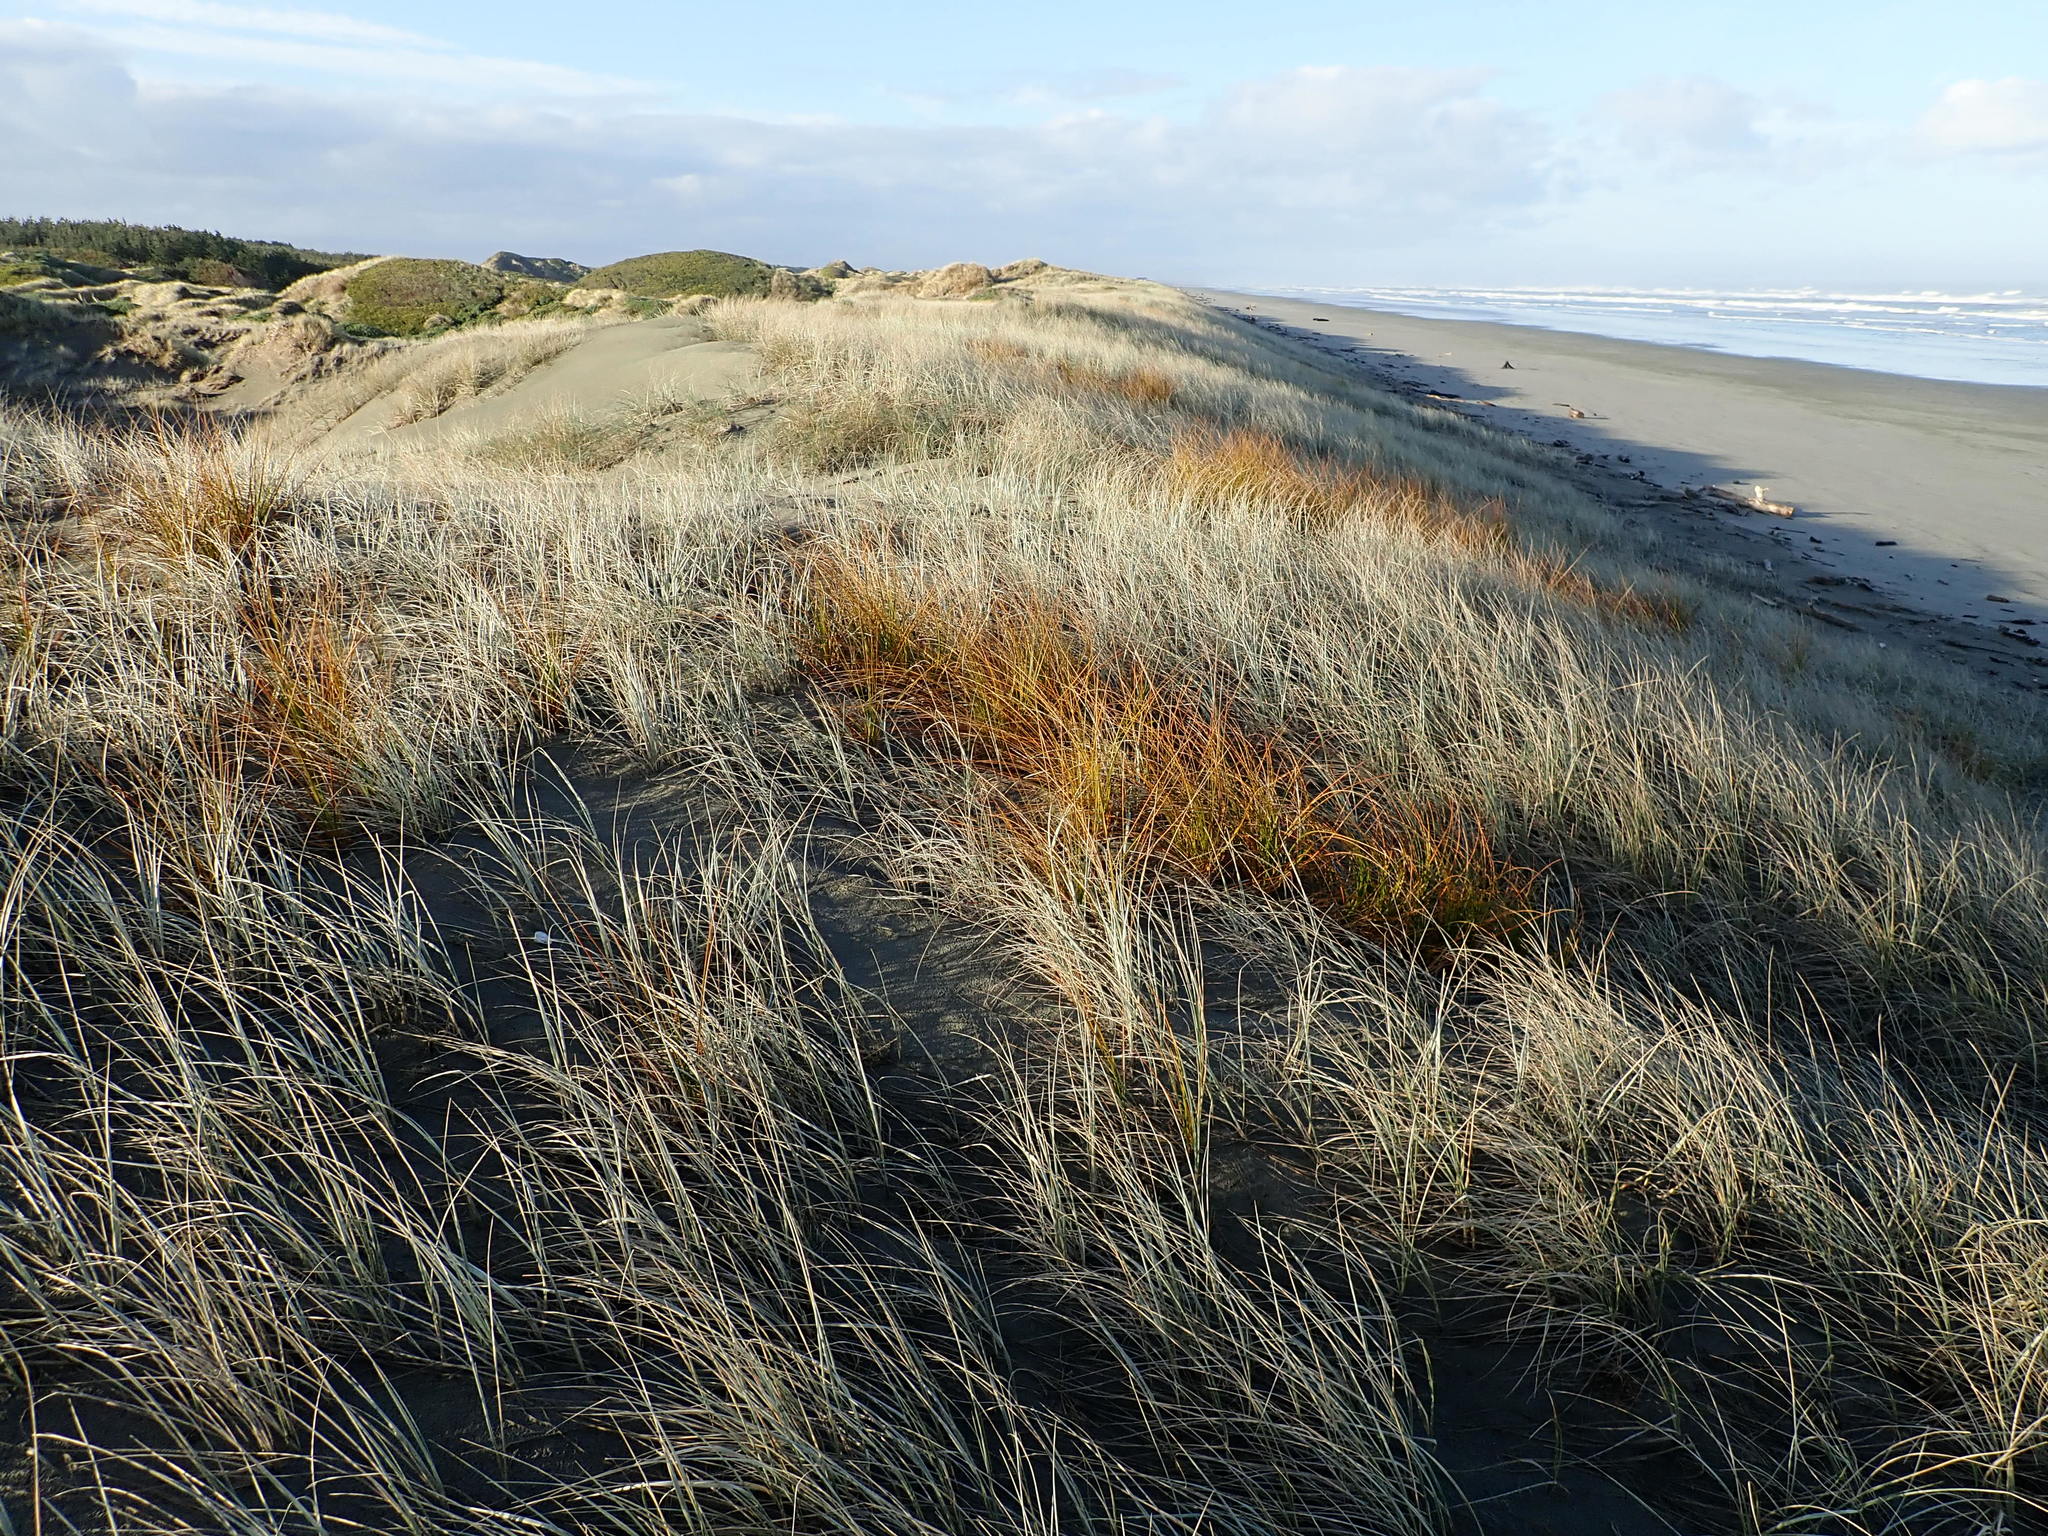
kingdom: Plantae
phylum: Tracheophyta
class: Liliopsida
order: Poales
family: Cyperaceae
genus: Ficinia
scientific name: Ficinia spiralis
